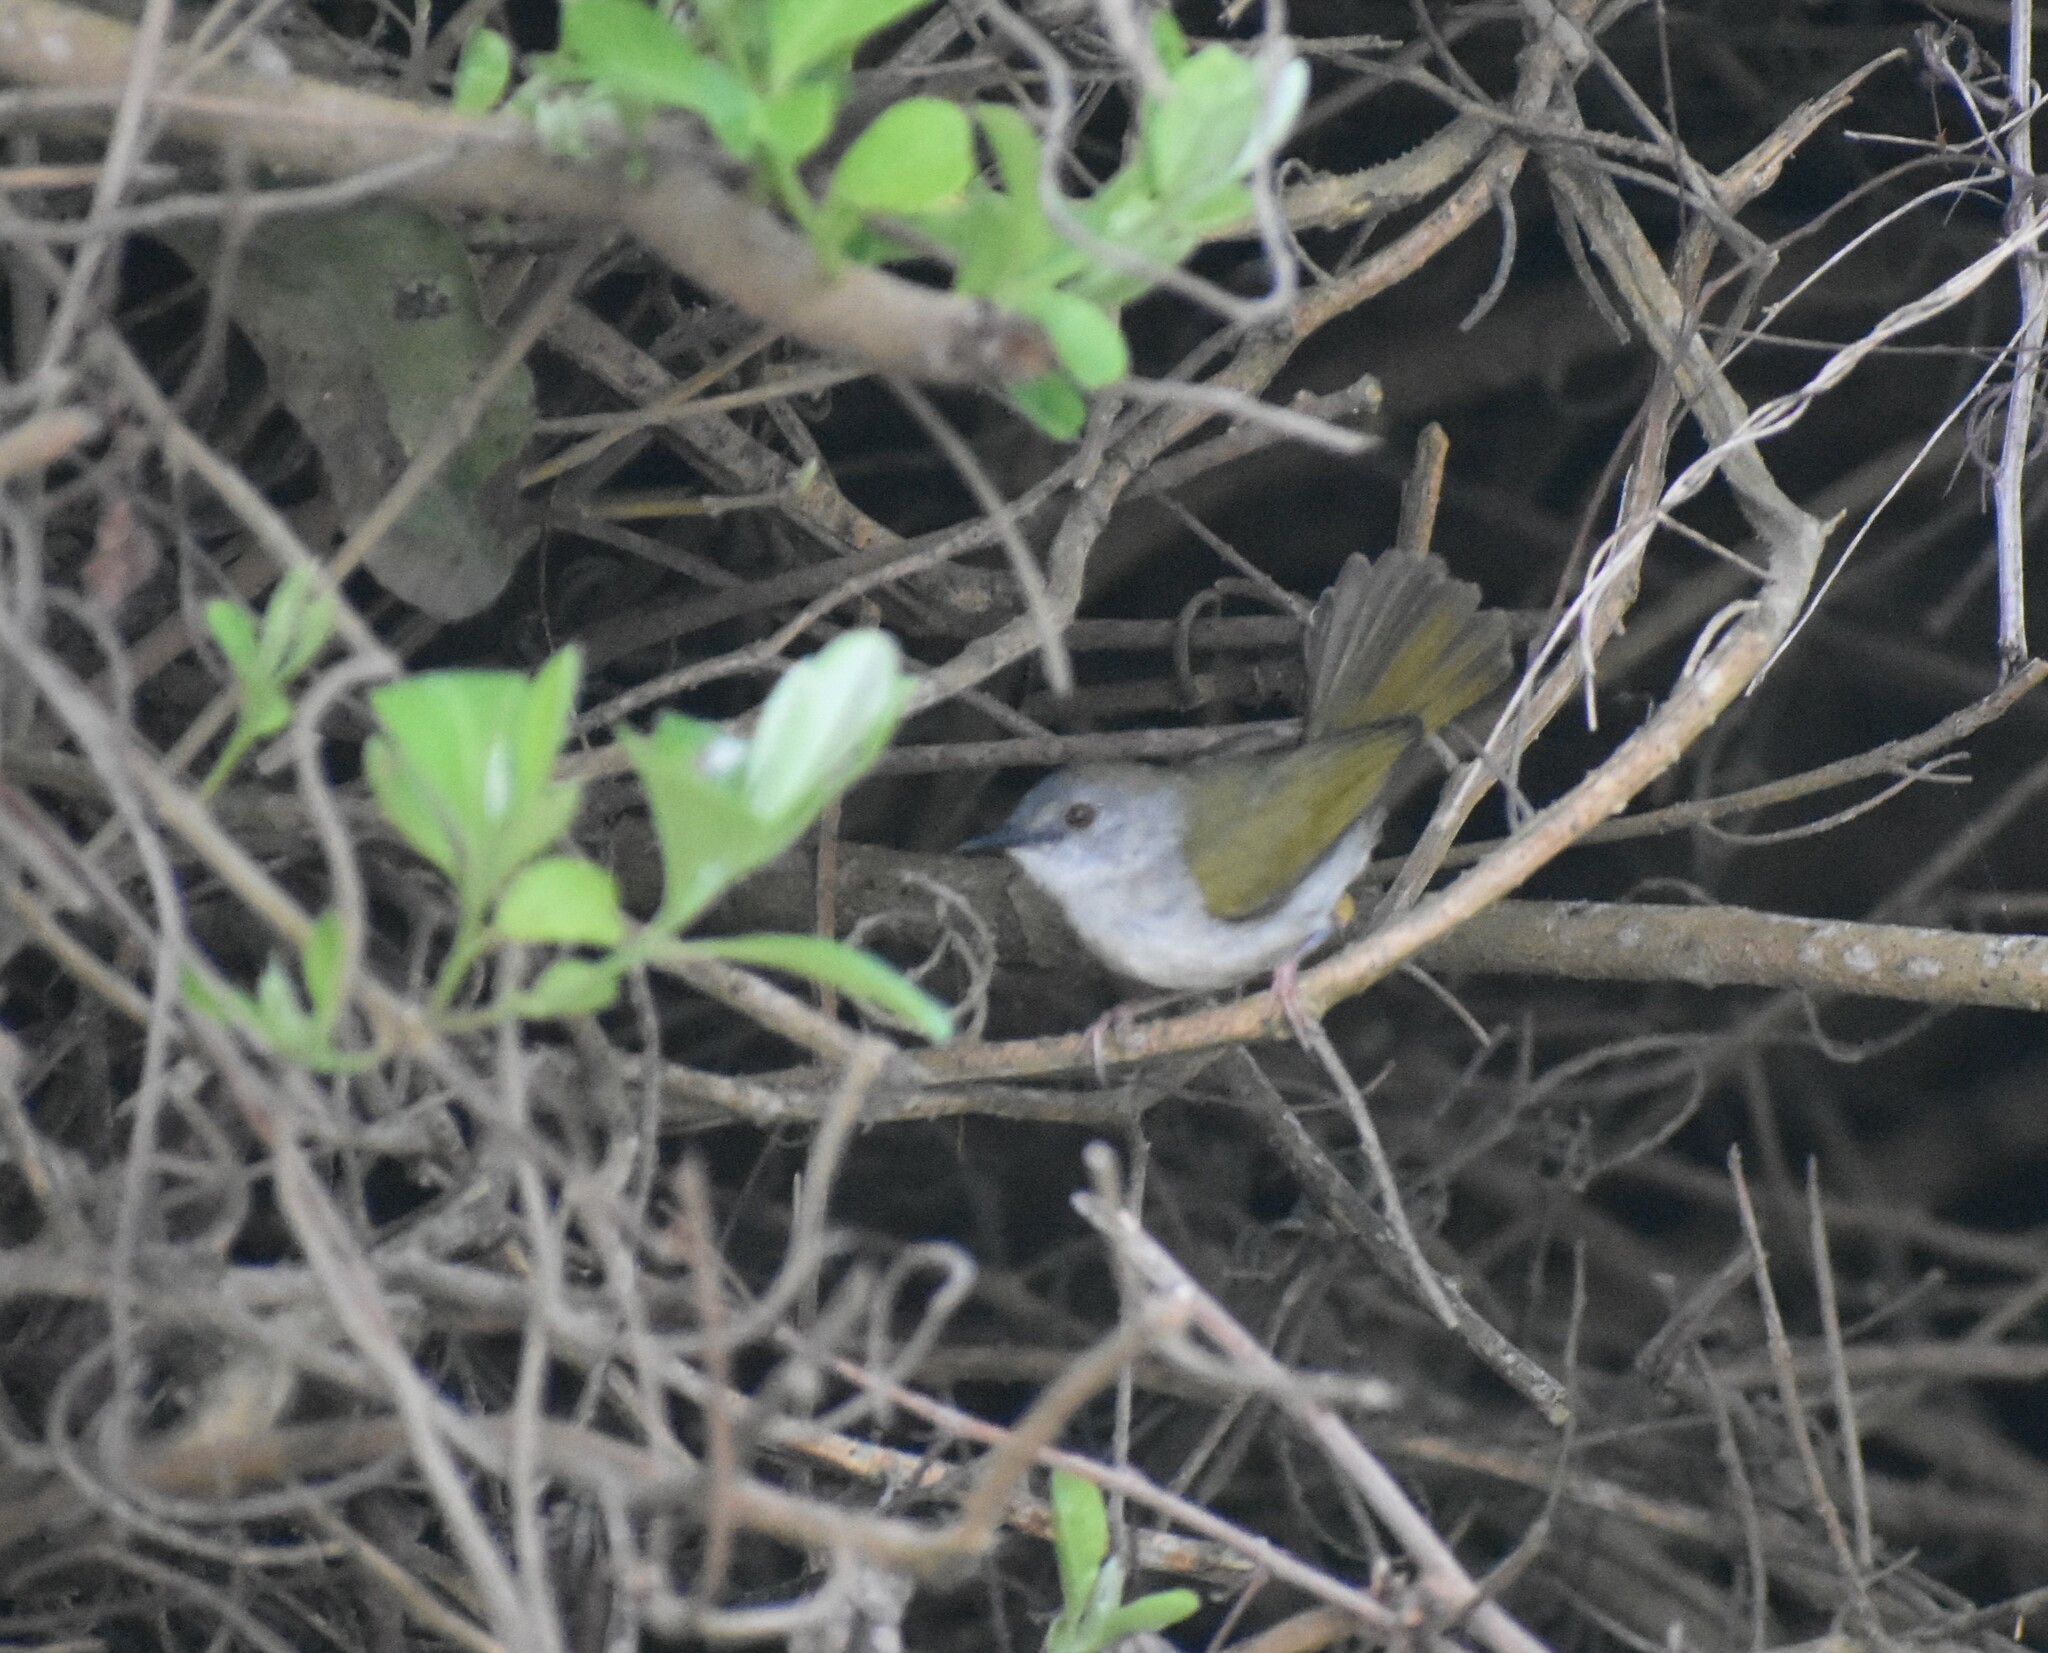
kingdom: Animalia
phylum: Chordata
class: Aves
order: Passeriformes
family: Cisticolidae
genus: Camaroptera
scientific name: Camaroptera brachyura
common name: Green-backed camaroptera
